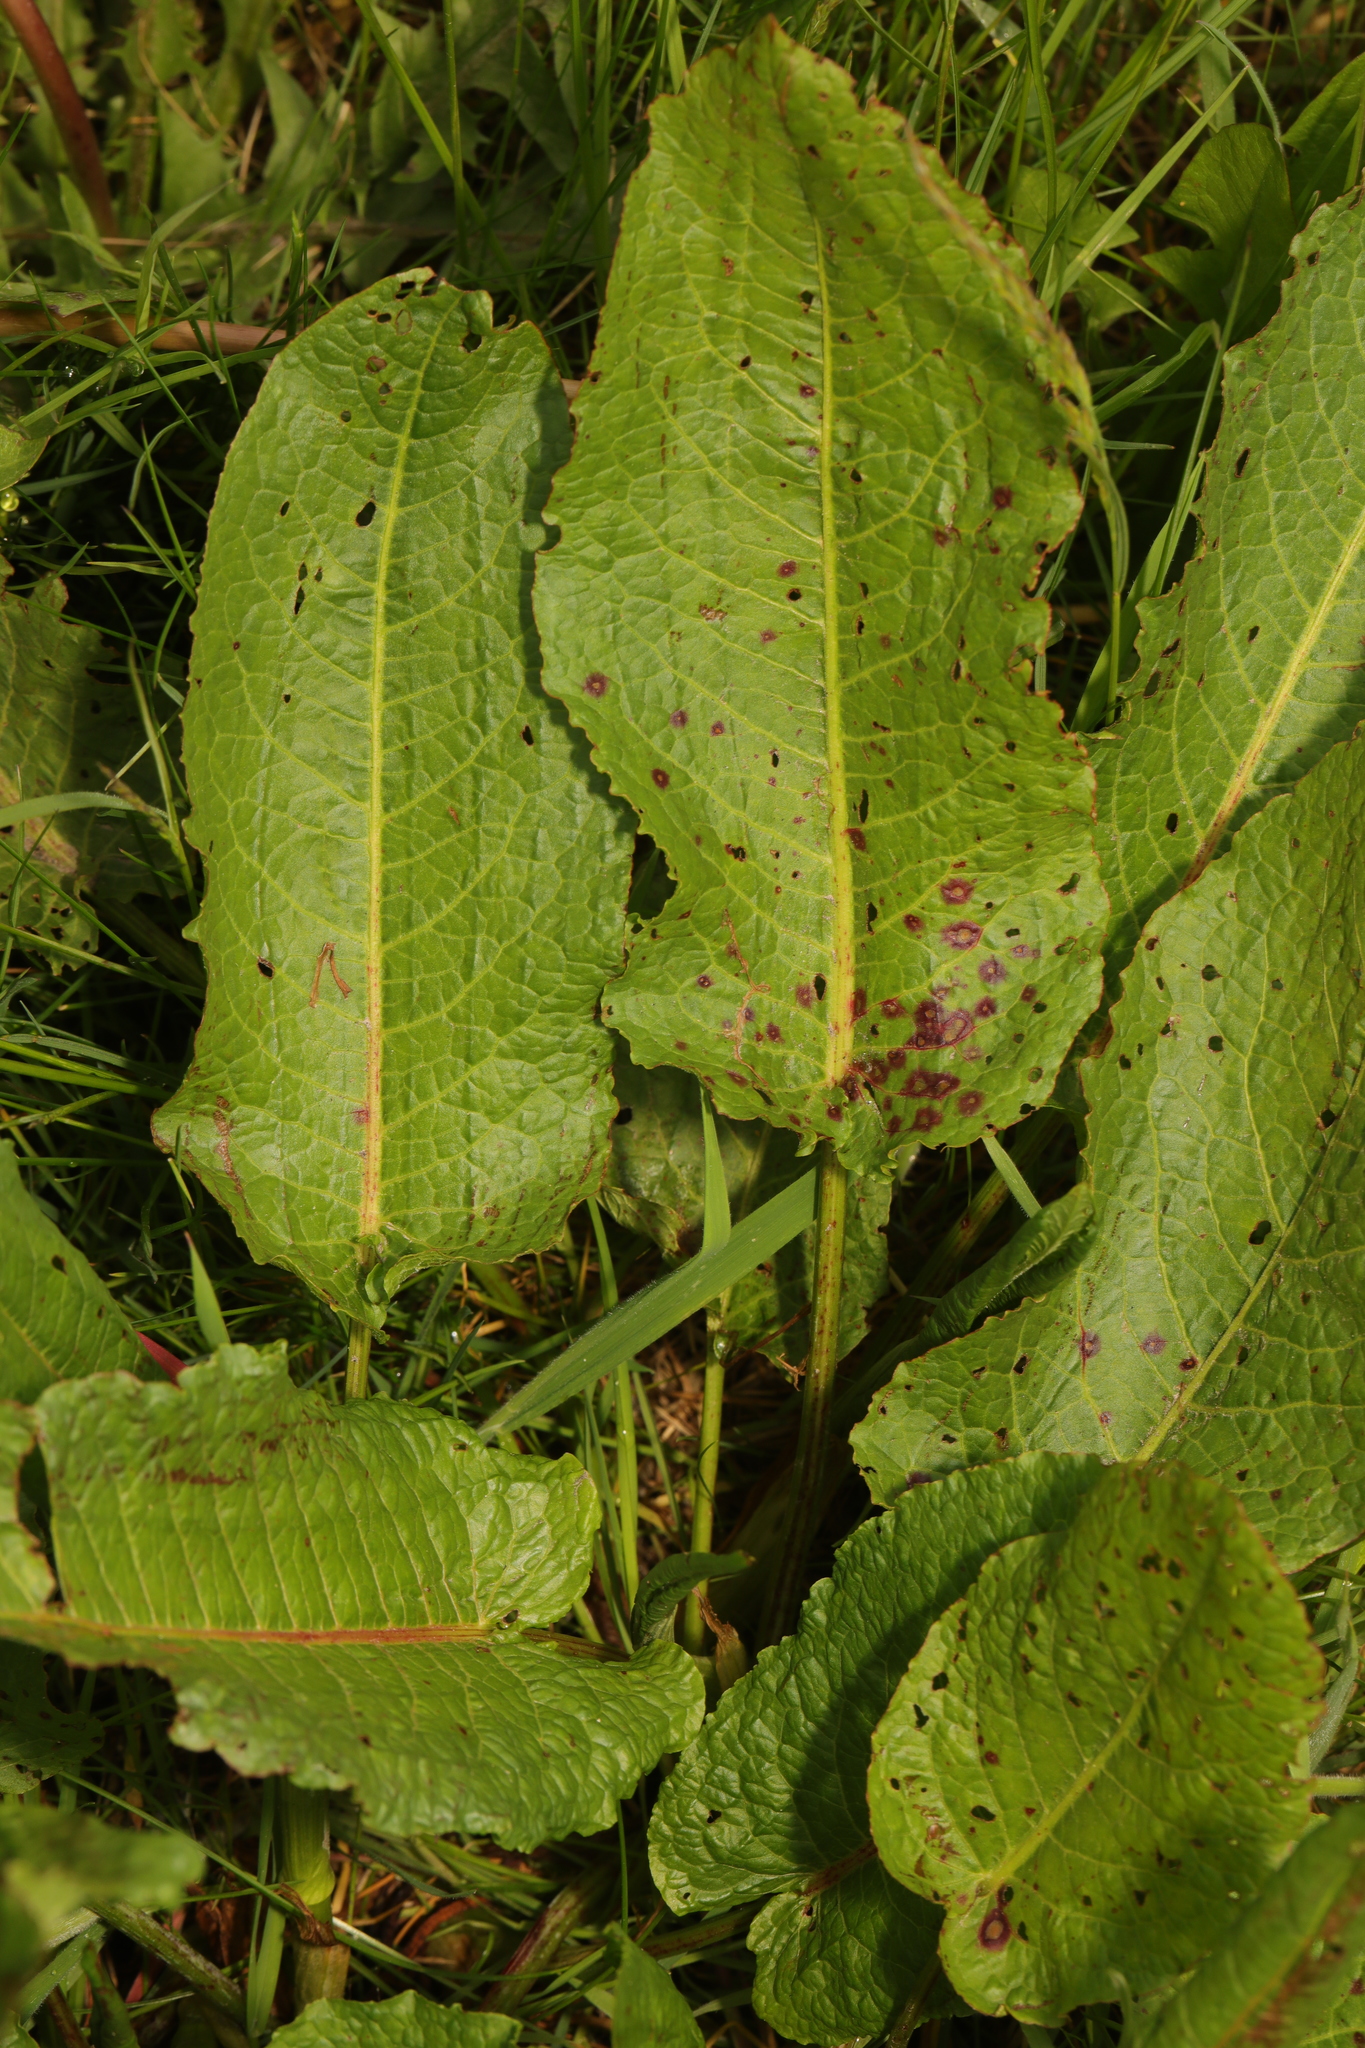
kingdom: Plantae
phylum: Tracheophyta
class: Magnoliopsida
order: Caryophyllales
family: Polygonaceae
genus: Rumex
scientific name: Rumex obtusifolius
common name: Bitter dock
